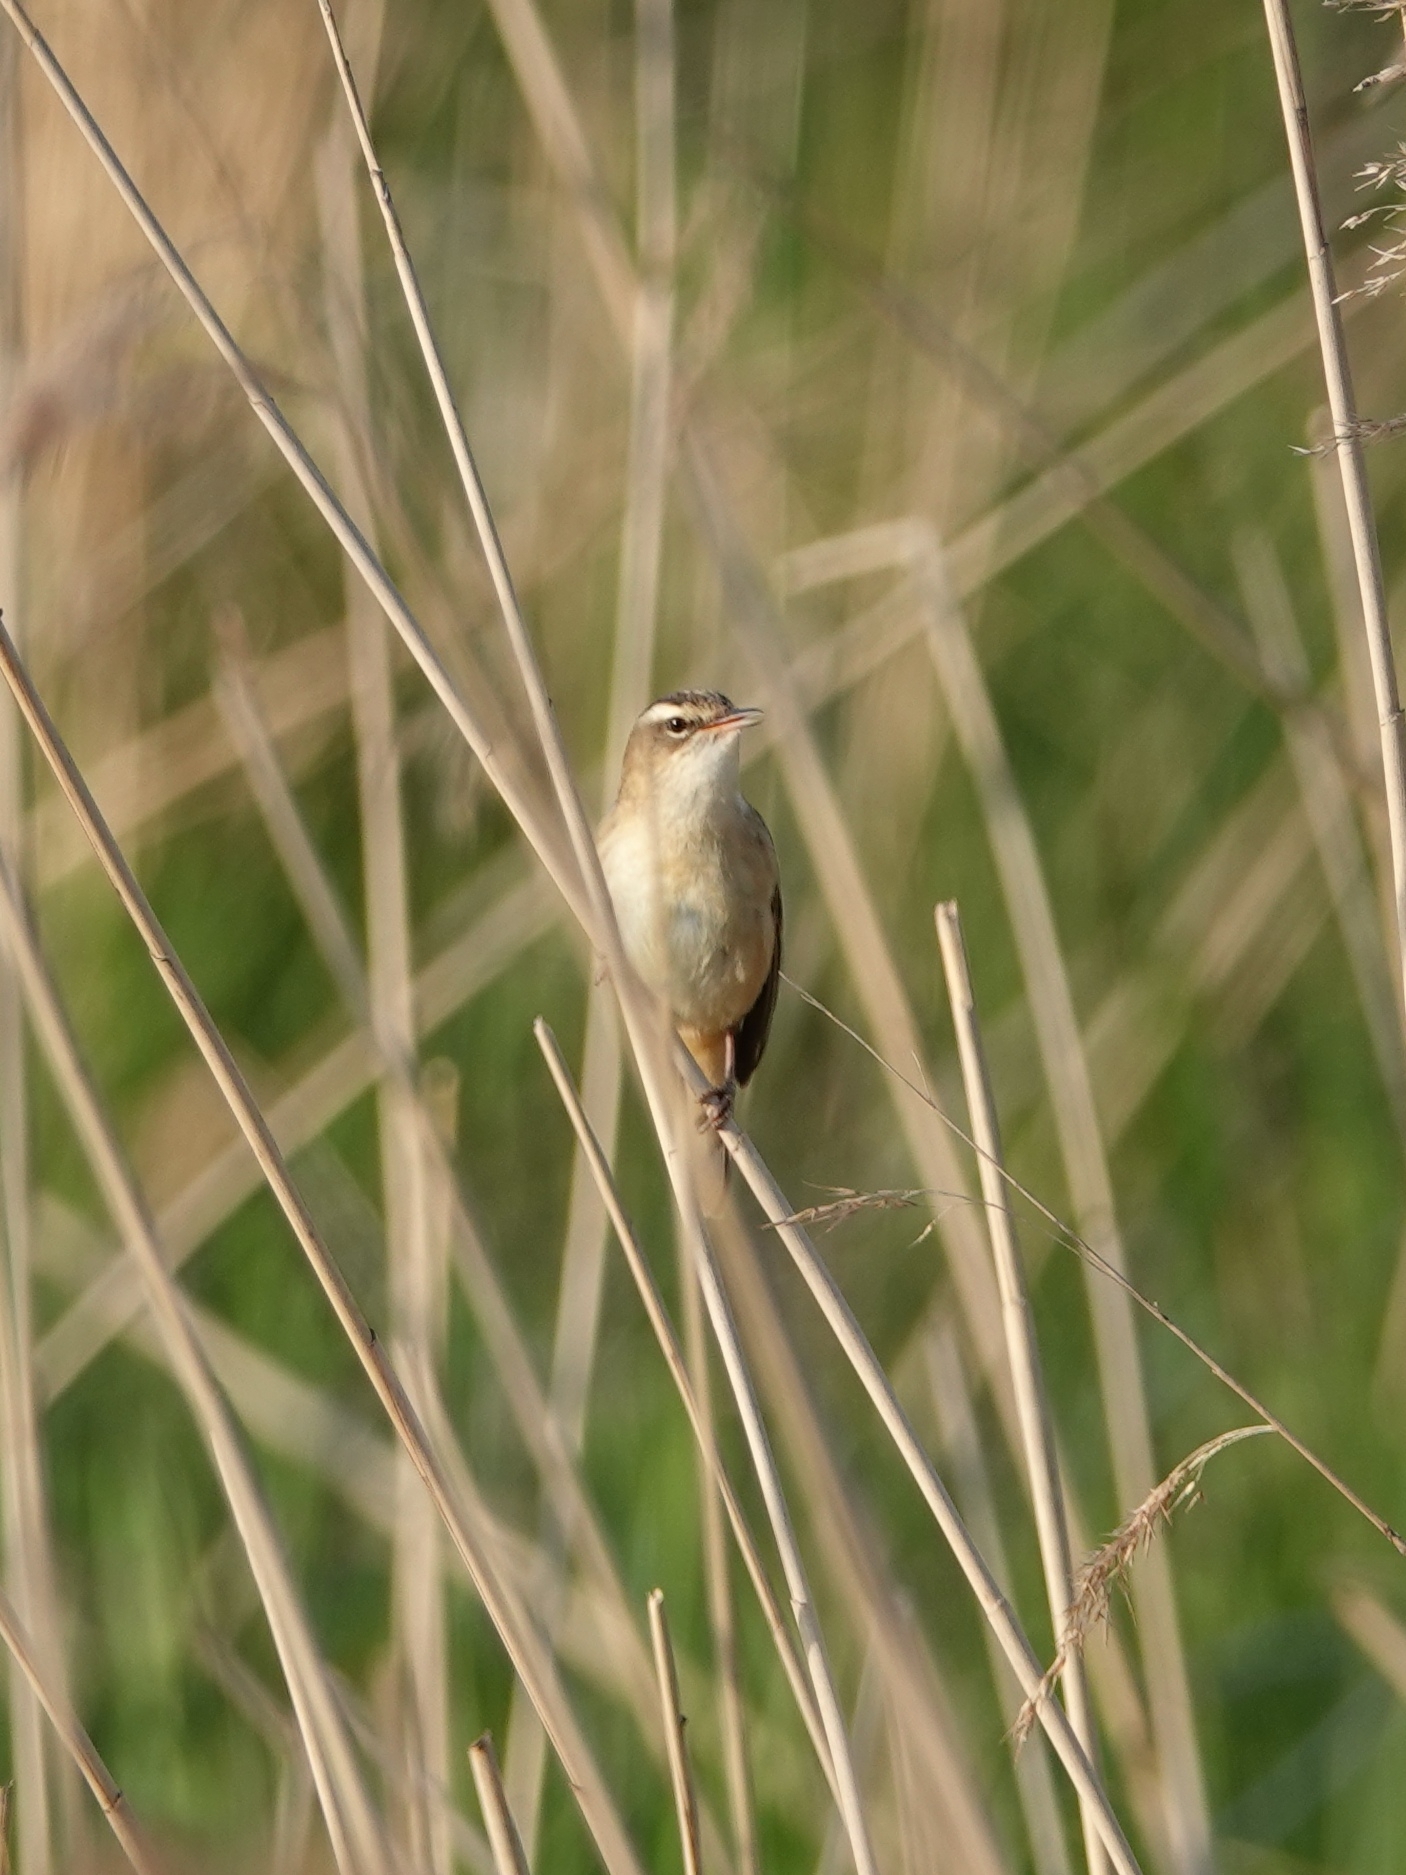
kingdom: Animalia
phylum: Chordata
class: Aves
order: Passeriformes
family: Acrocephalidae
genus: Acrocephalus
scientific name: Acrocephalus schoenobaenus
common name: Sedge warbler
